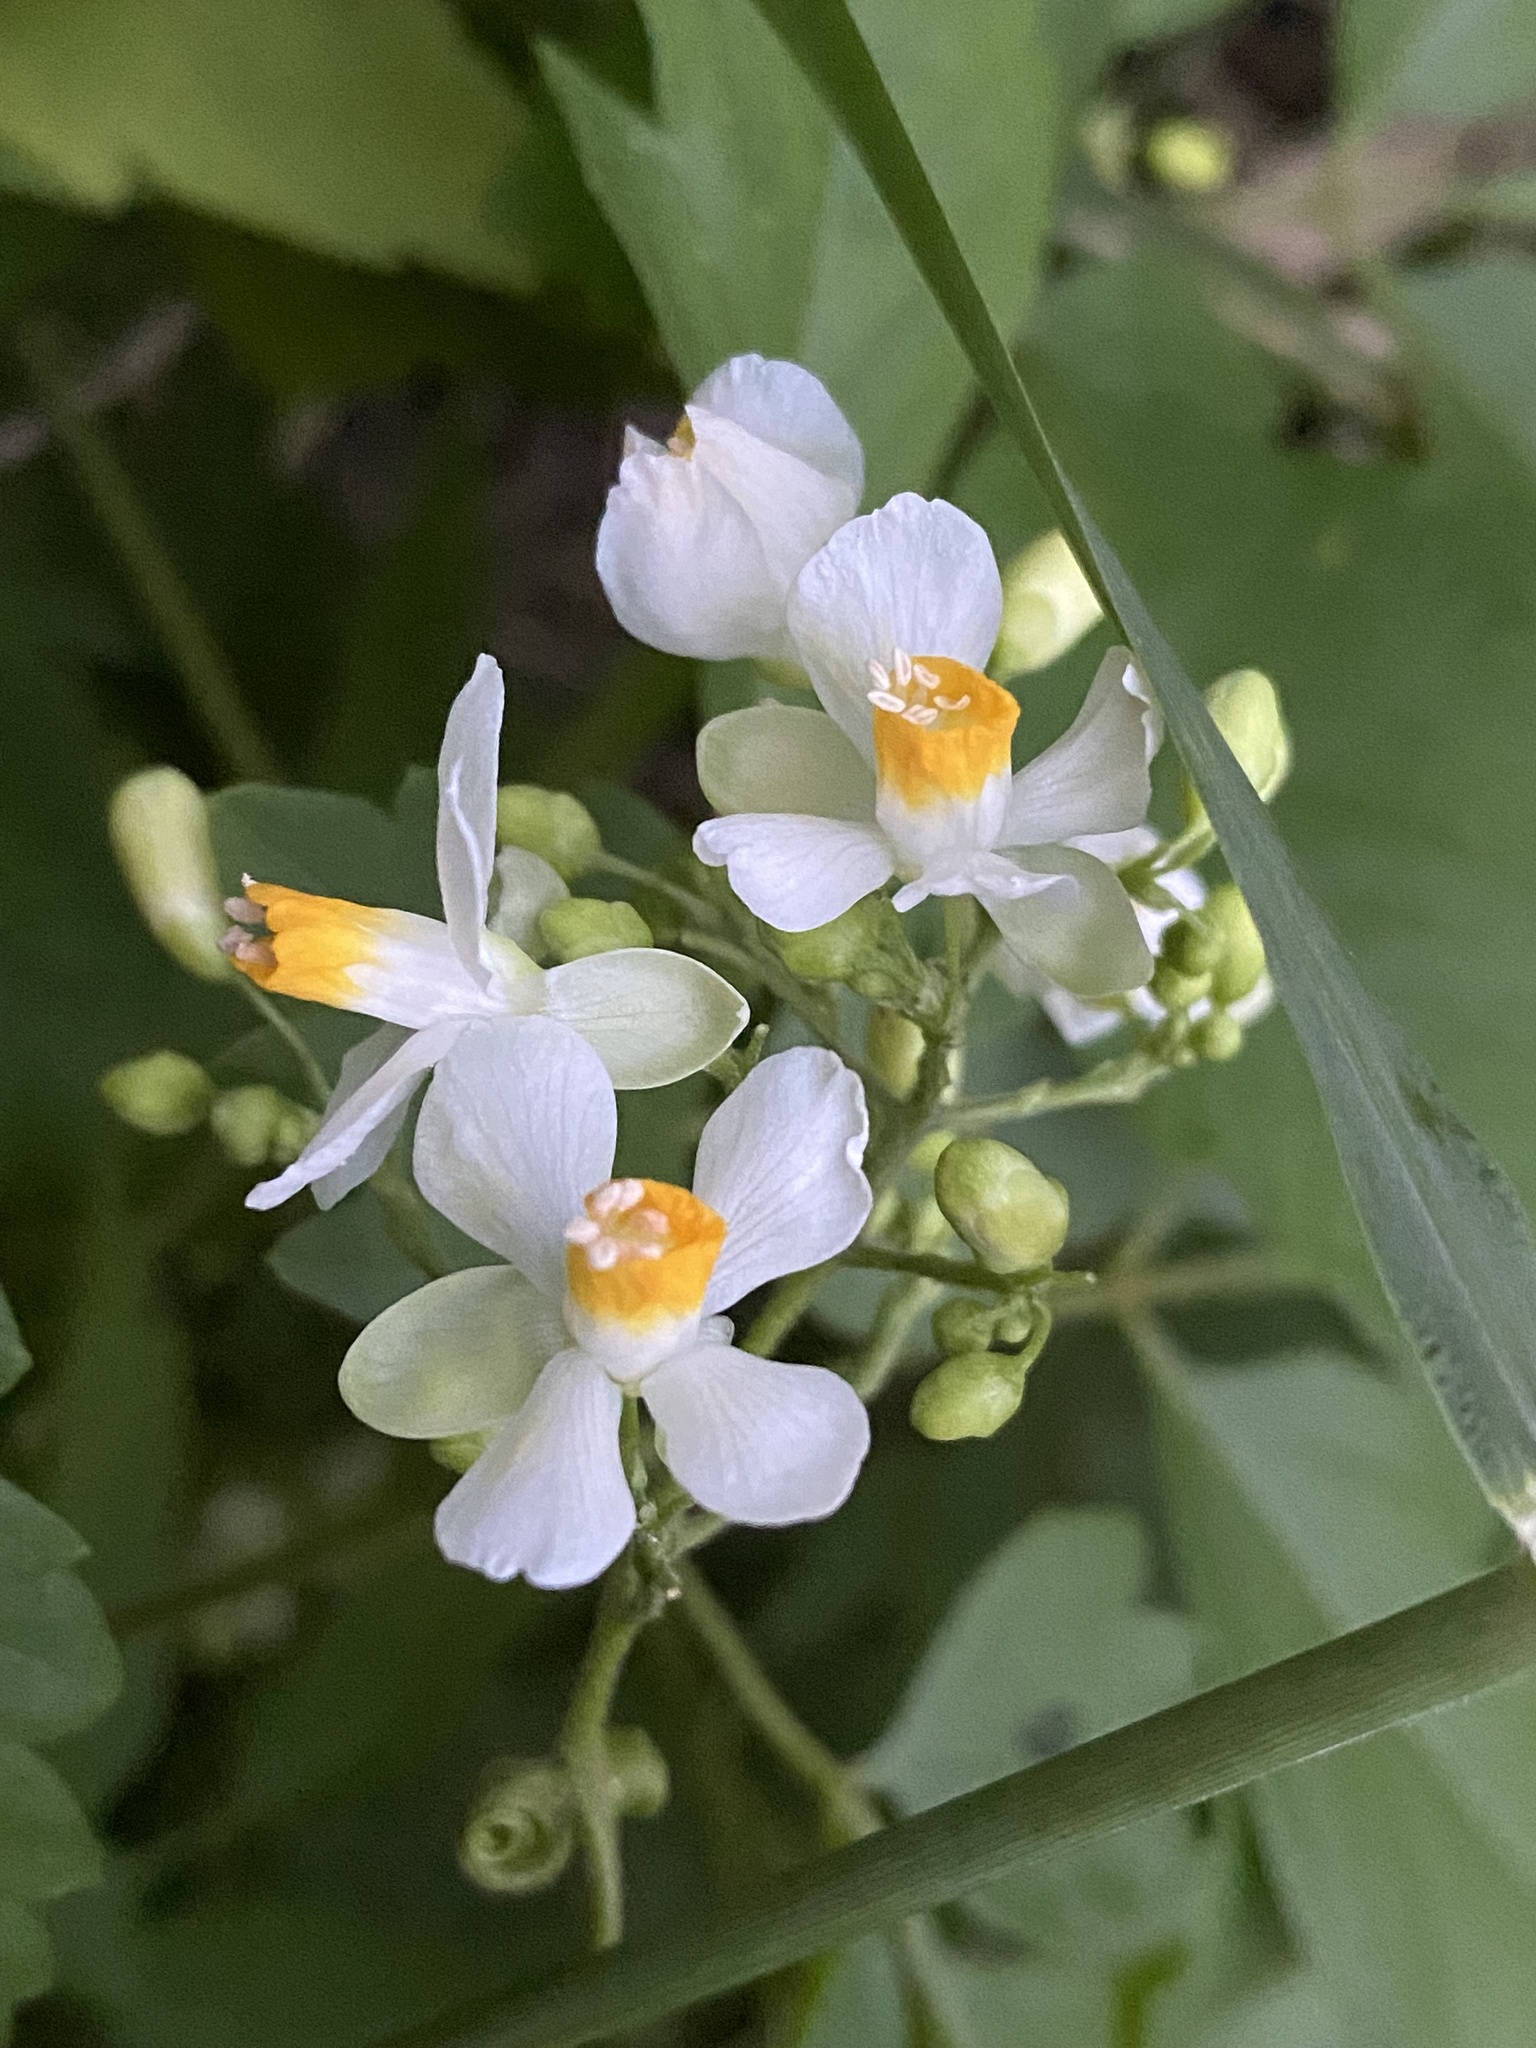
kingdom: Plantae
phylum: Tracheophyta
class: Magnoliopsida
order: Sapindales
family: Sapindaceae
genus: Cardiospermum
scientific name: Cardiospermum grandiflorum
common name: Balloon vine
